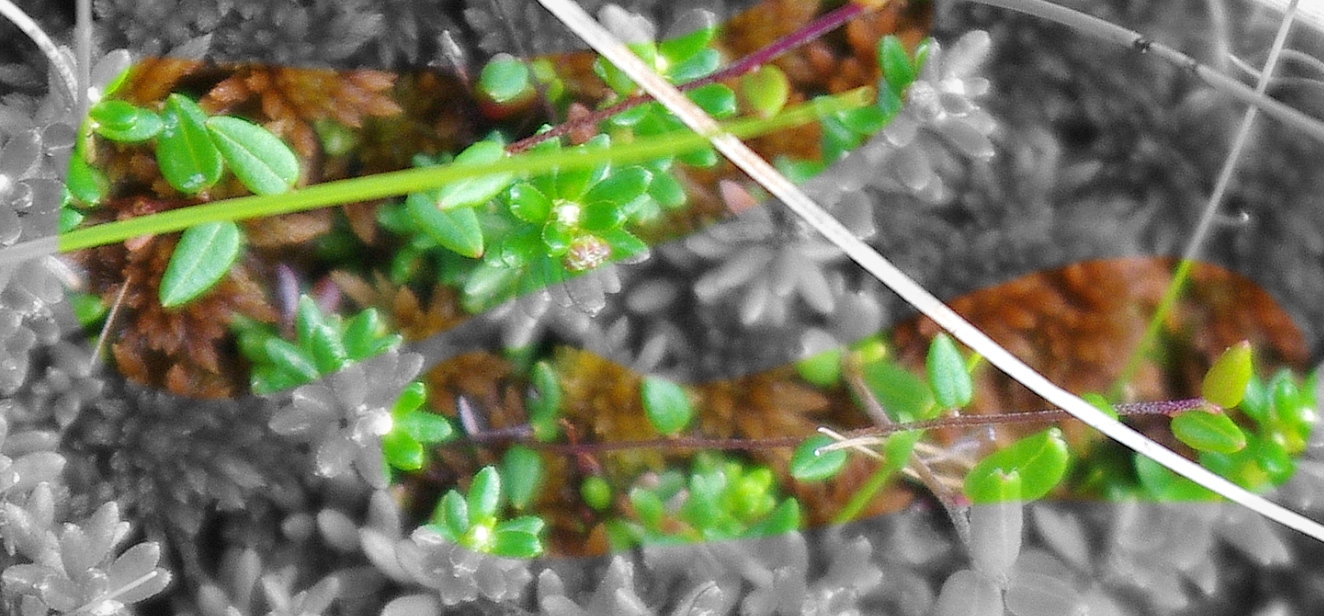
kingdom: Plantae
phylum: Tracheophyta
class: Magnoliopsida
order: Ericales
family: Ericaceae
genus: Vaccinium
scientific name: Vaccinium oxycoccos
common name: Cranberry
